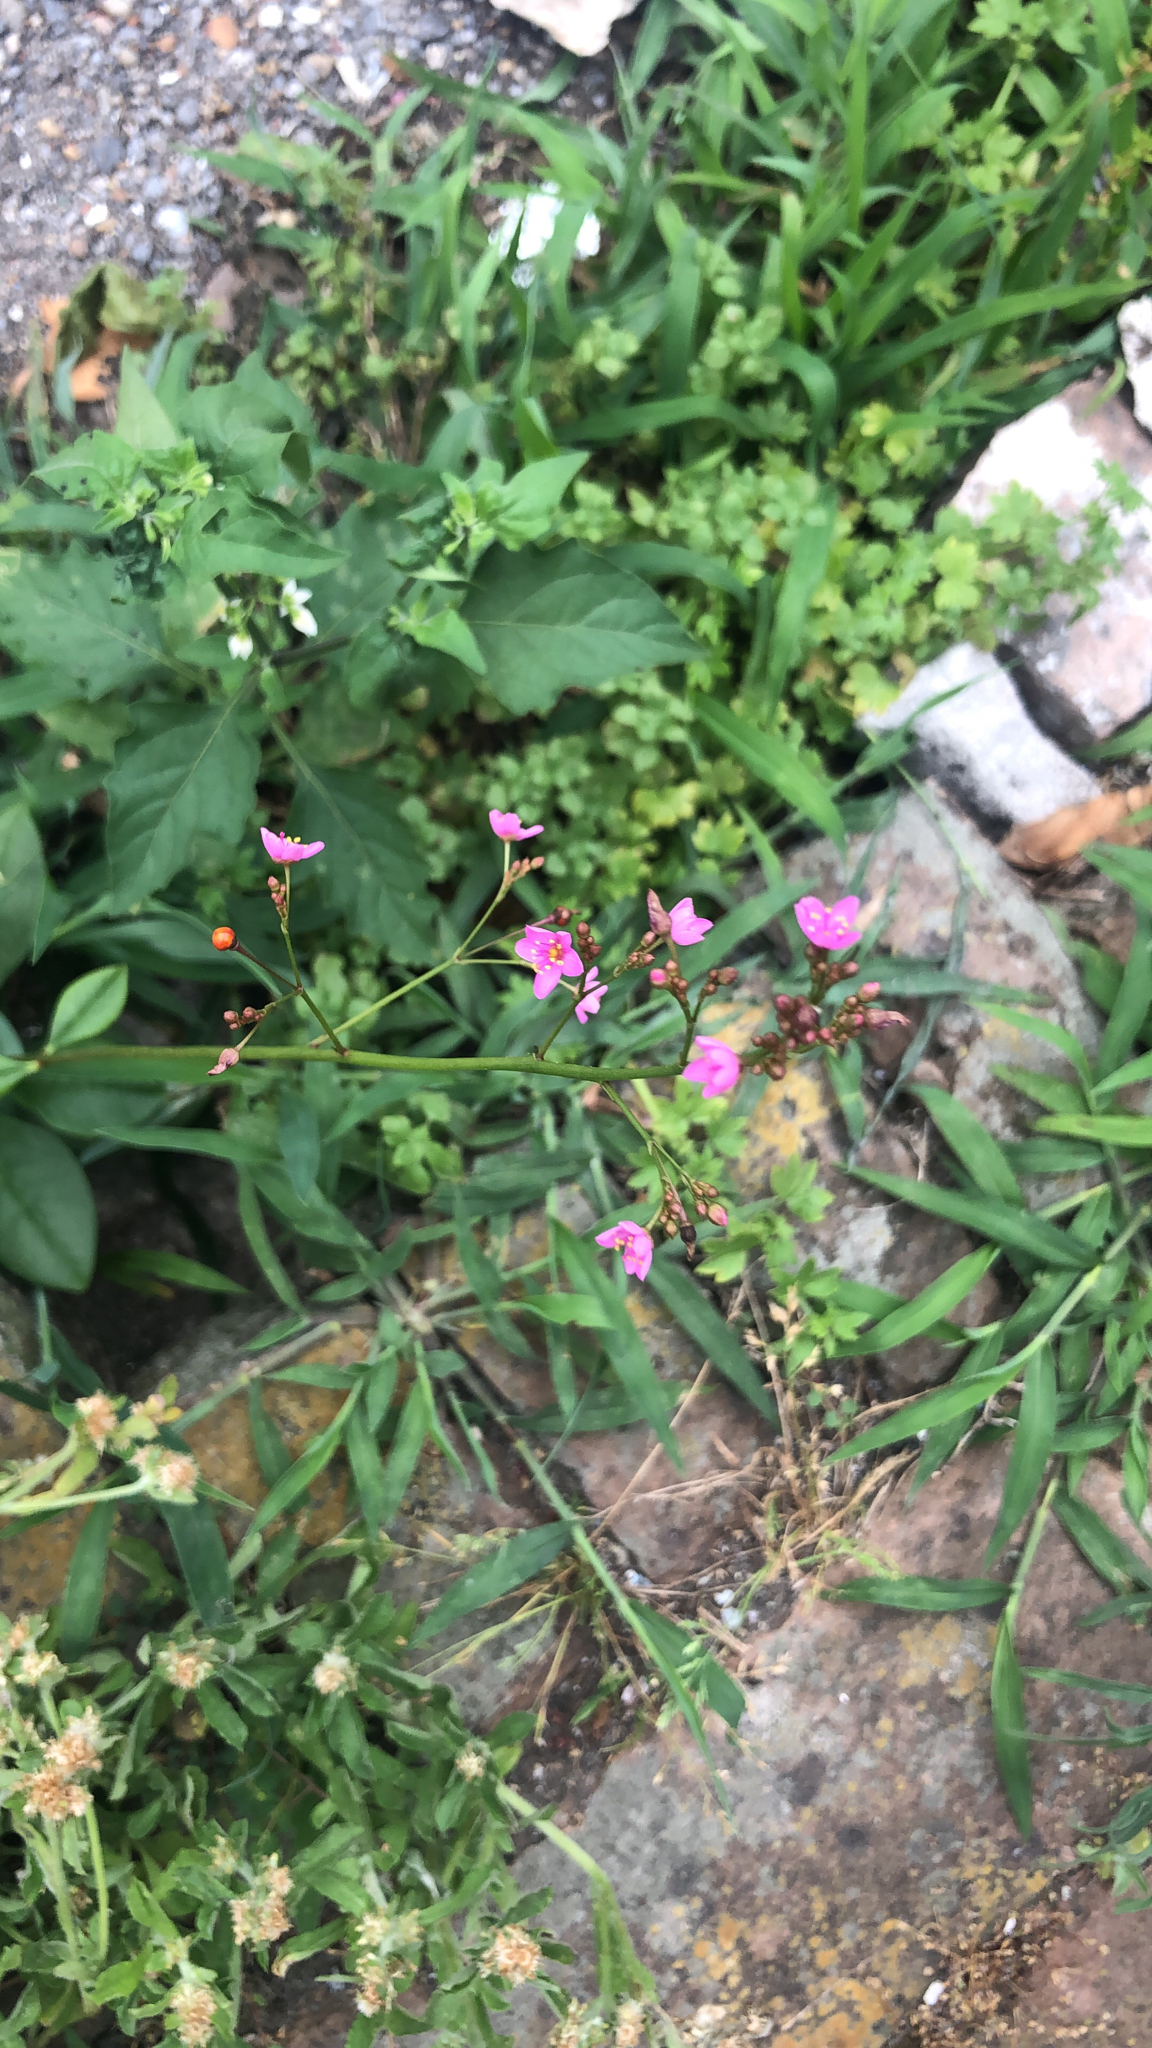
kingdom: Plantae
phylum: Tracheophyta
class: Magnoliopsida
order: Caryophyllales
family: Talinaceae
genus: Talinum
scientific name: Talinum paniculatum
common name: Jewels of opar
